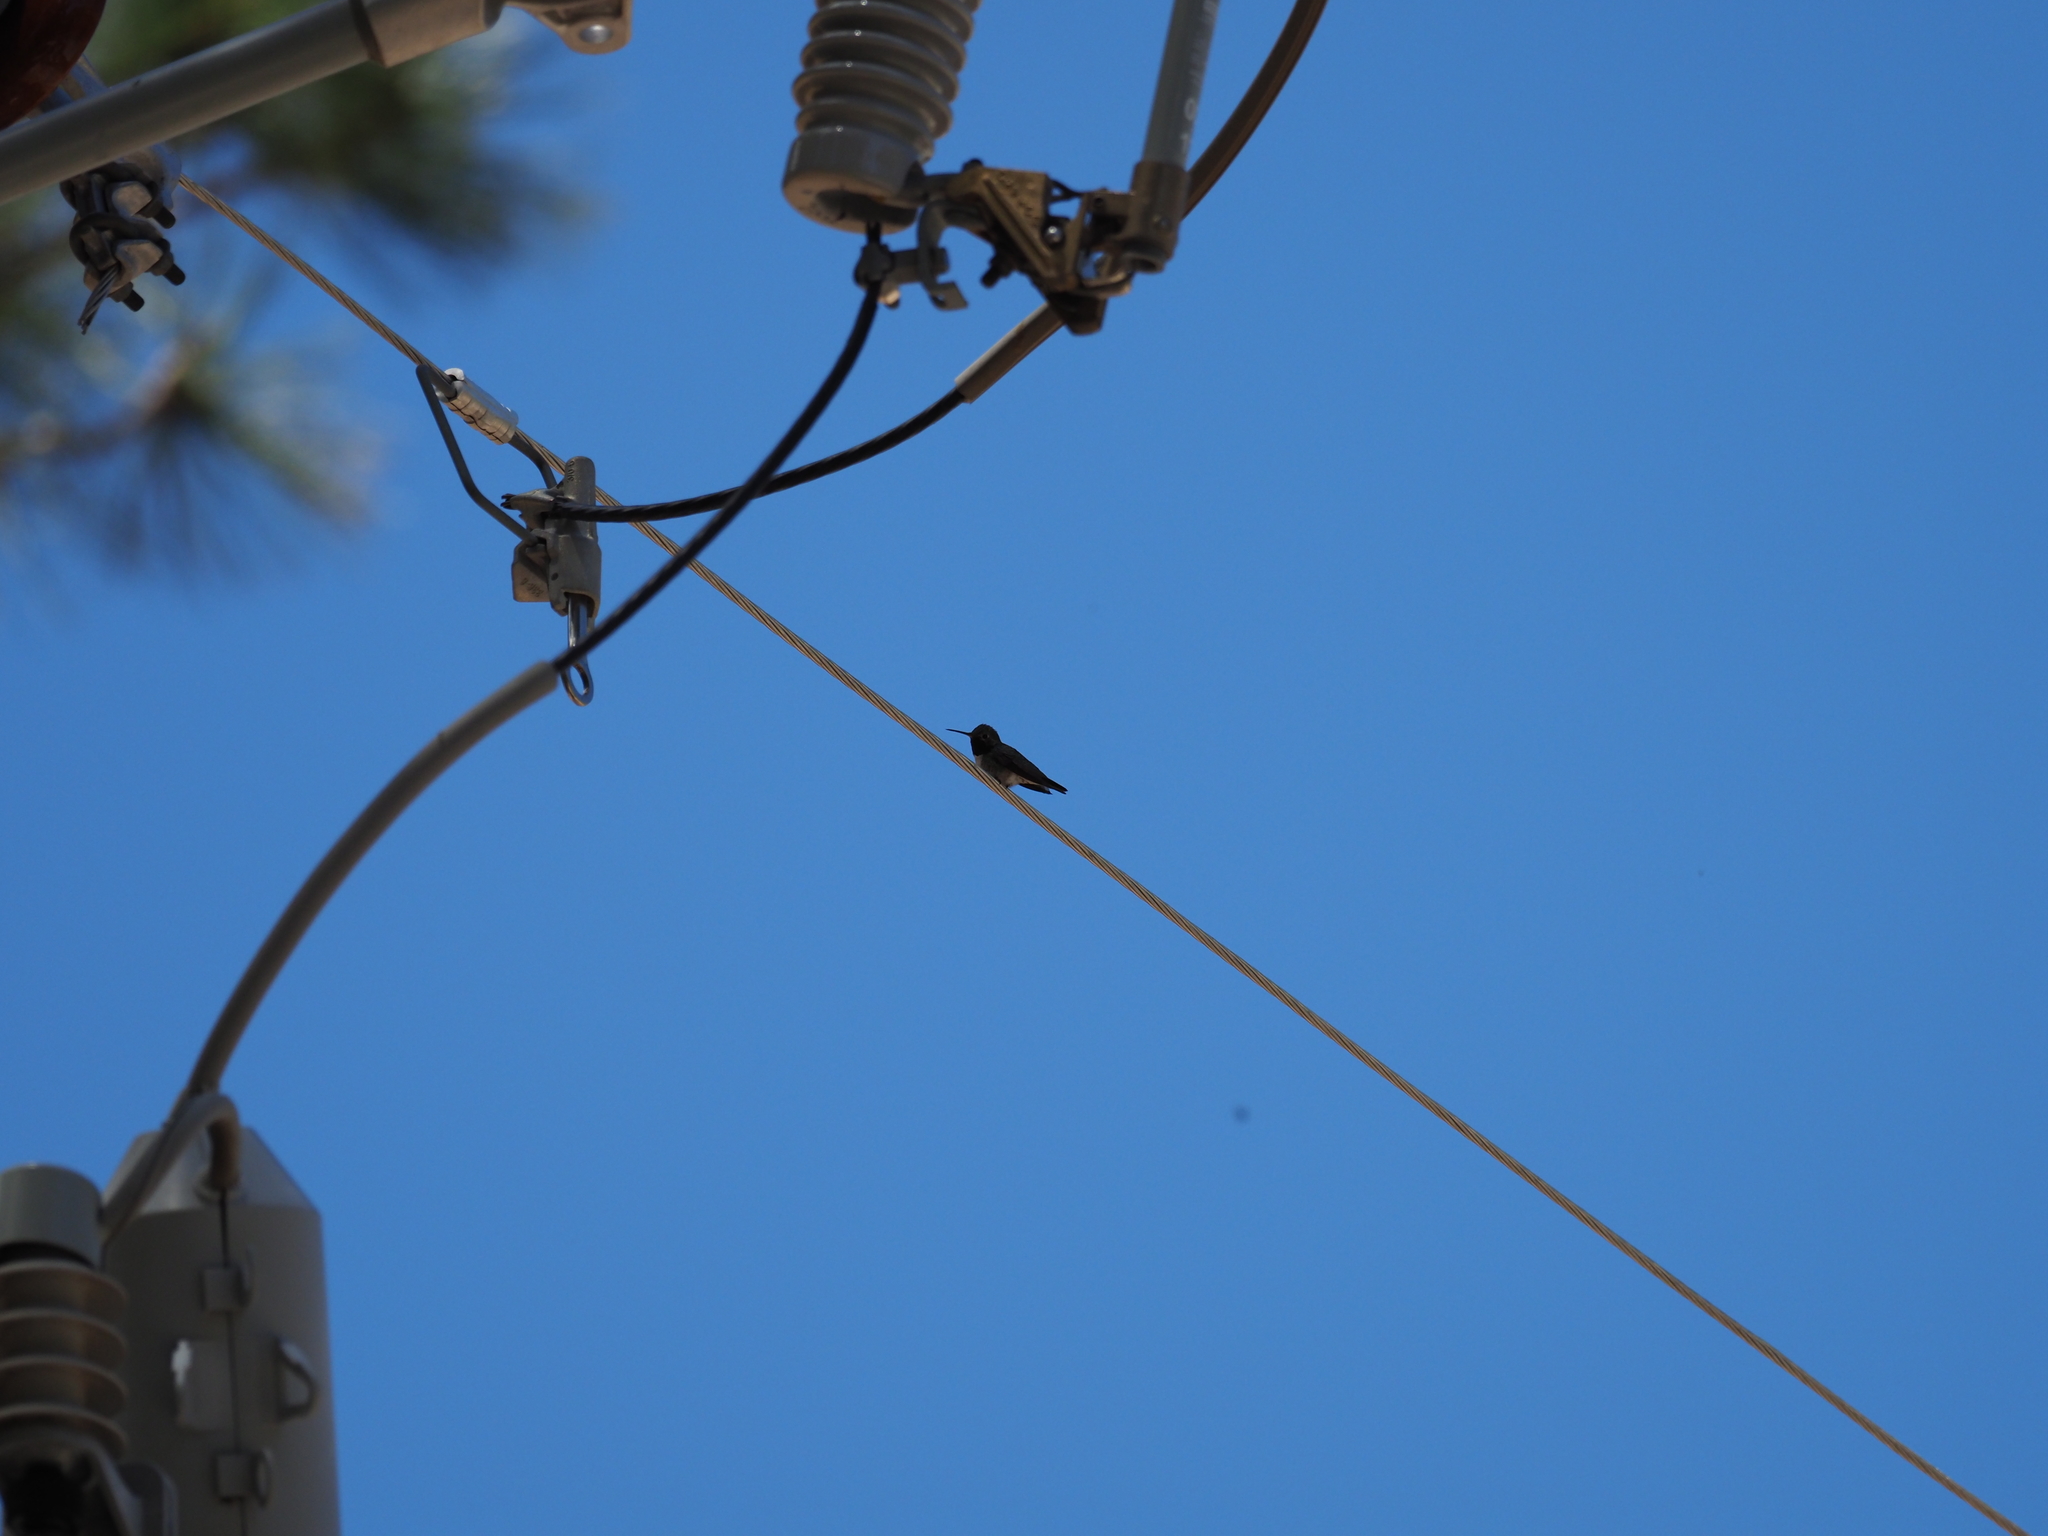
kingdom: Animalia
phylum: Chordata
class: Aves
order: Apodiformes
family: Trochilidae
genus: Selasphorus
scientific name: Selasphorus platycercus
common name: Broad-tailed hummingbird
